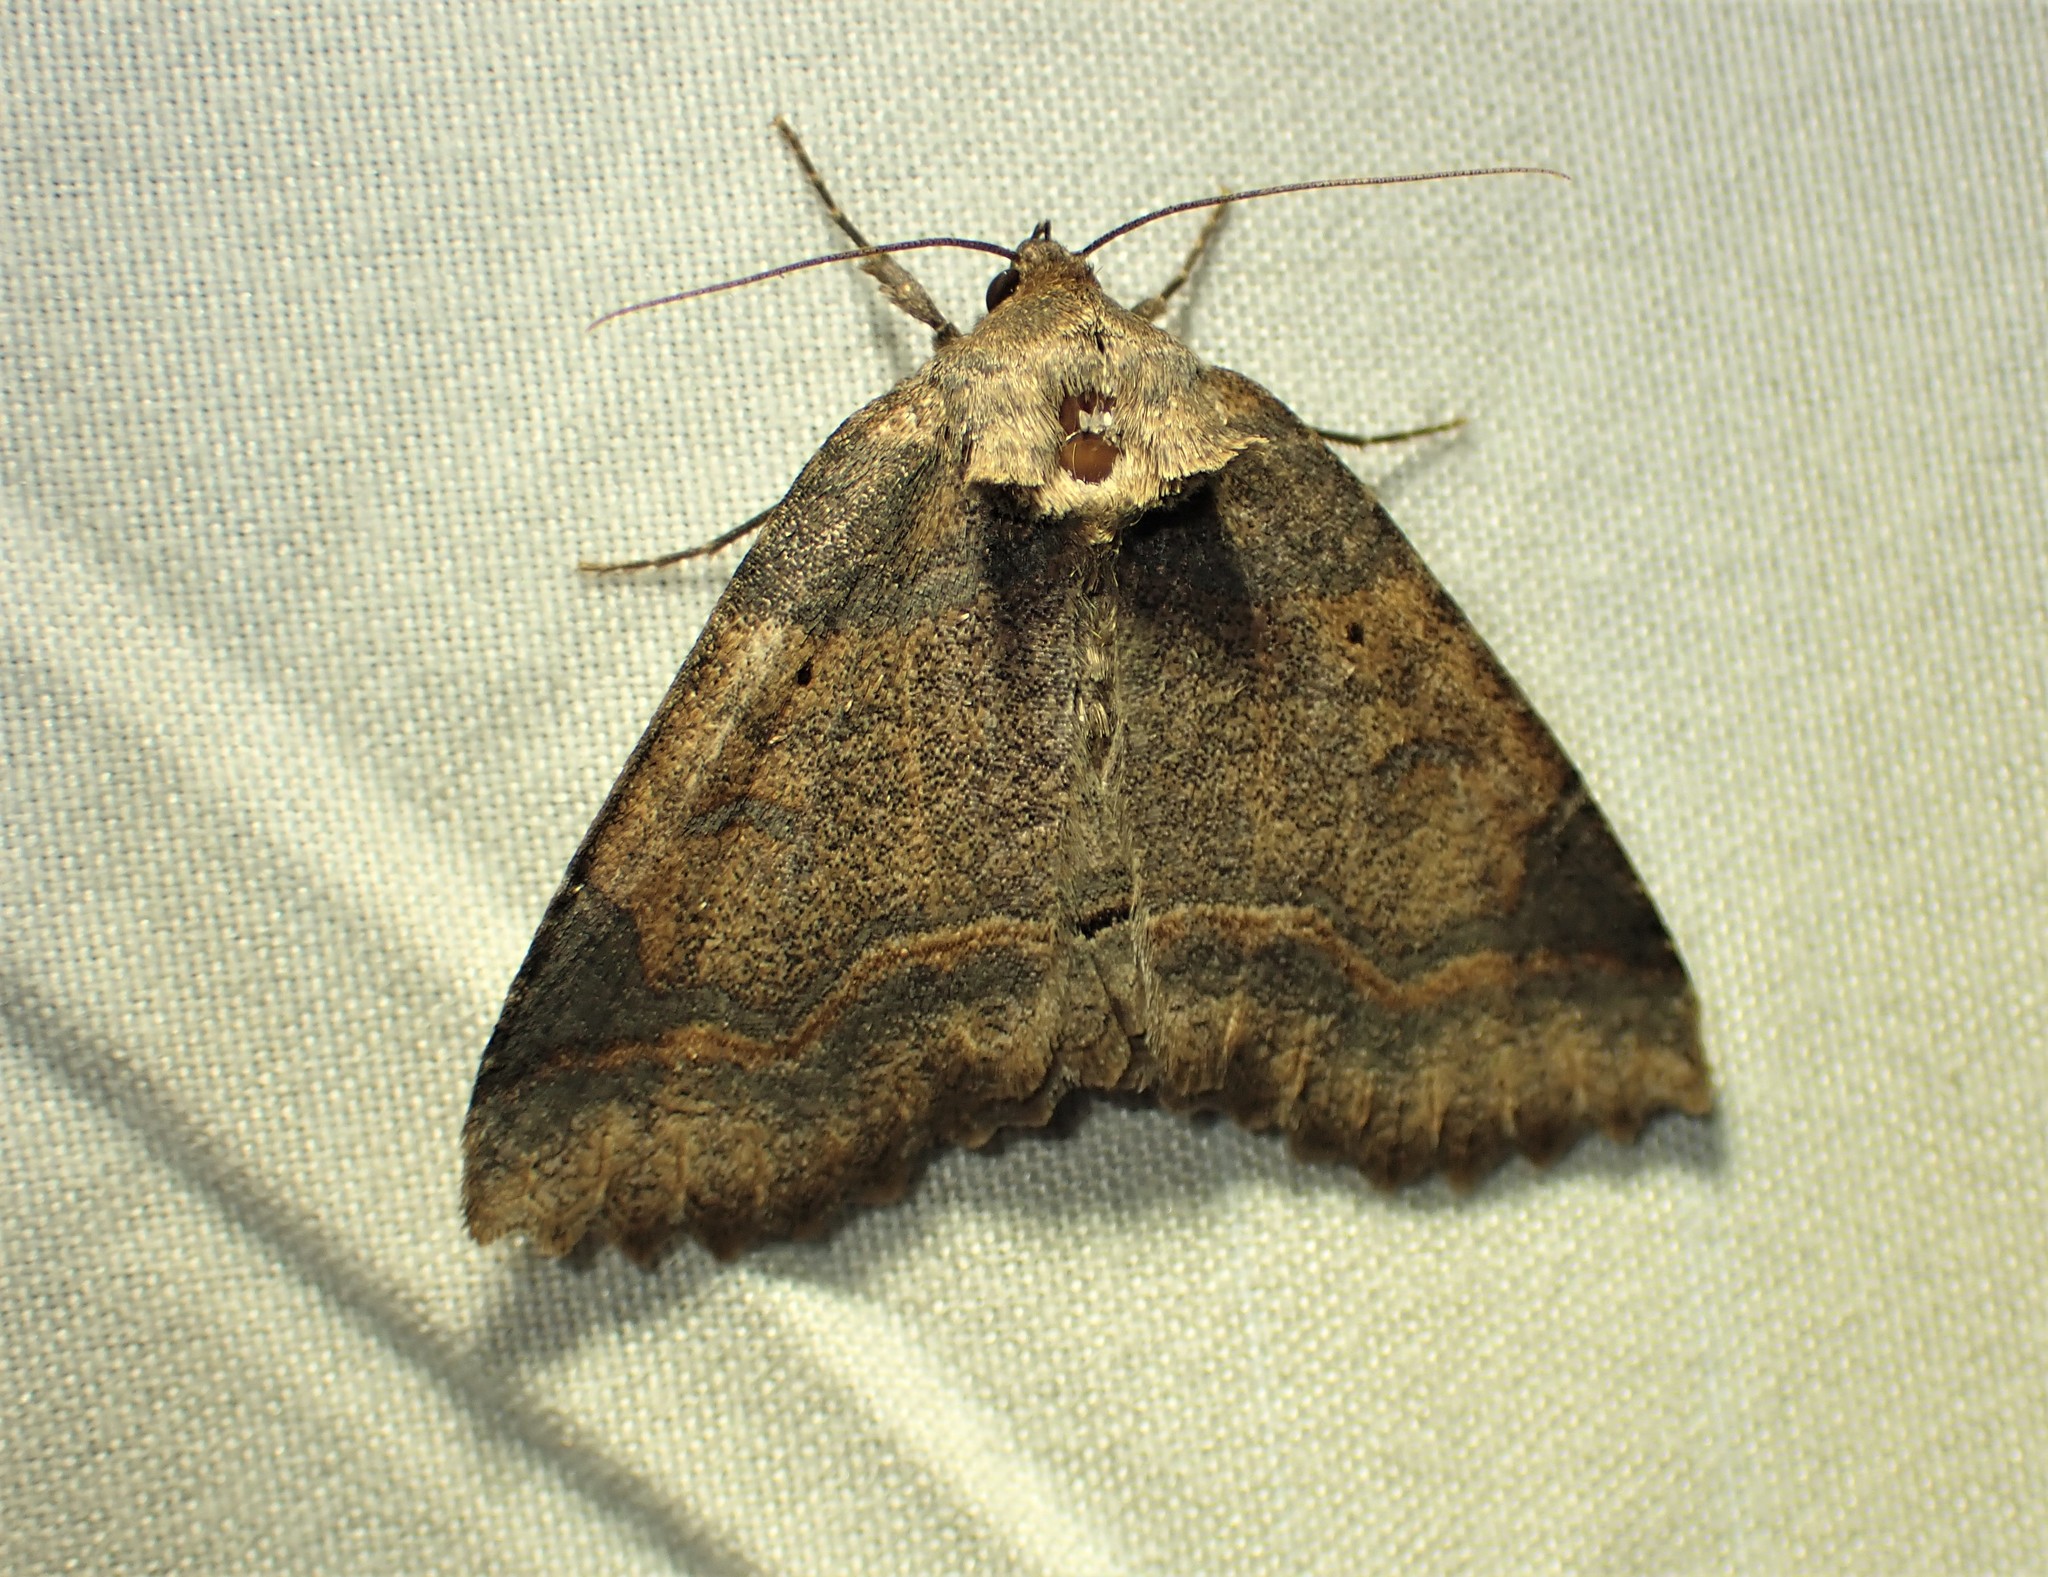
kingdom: Animalia
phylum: Arthropoda
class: Insecta
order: Lepidoptera
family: Erebidae
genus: Zale
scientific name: Zale unilineata
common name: One-lined zale moth
